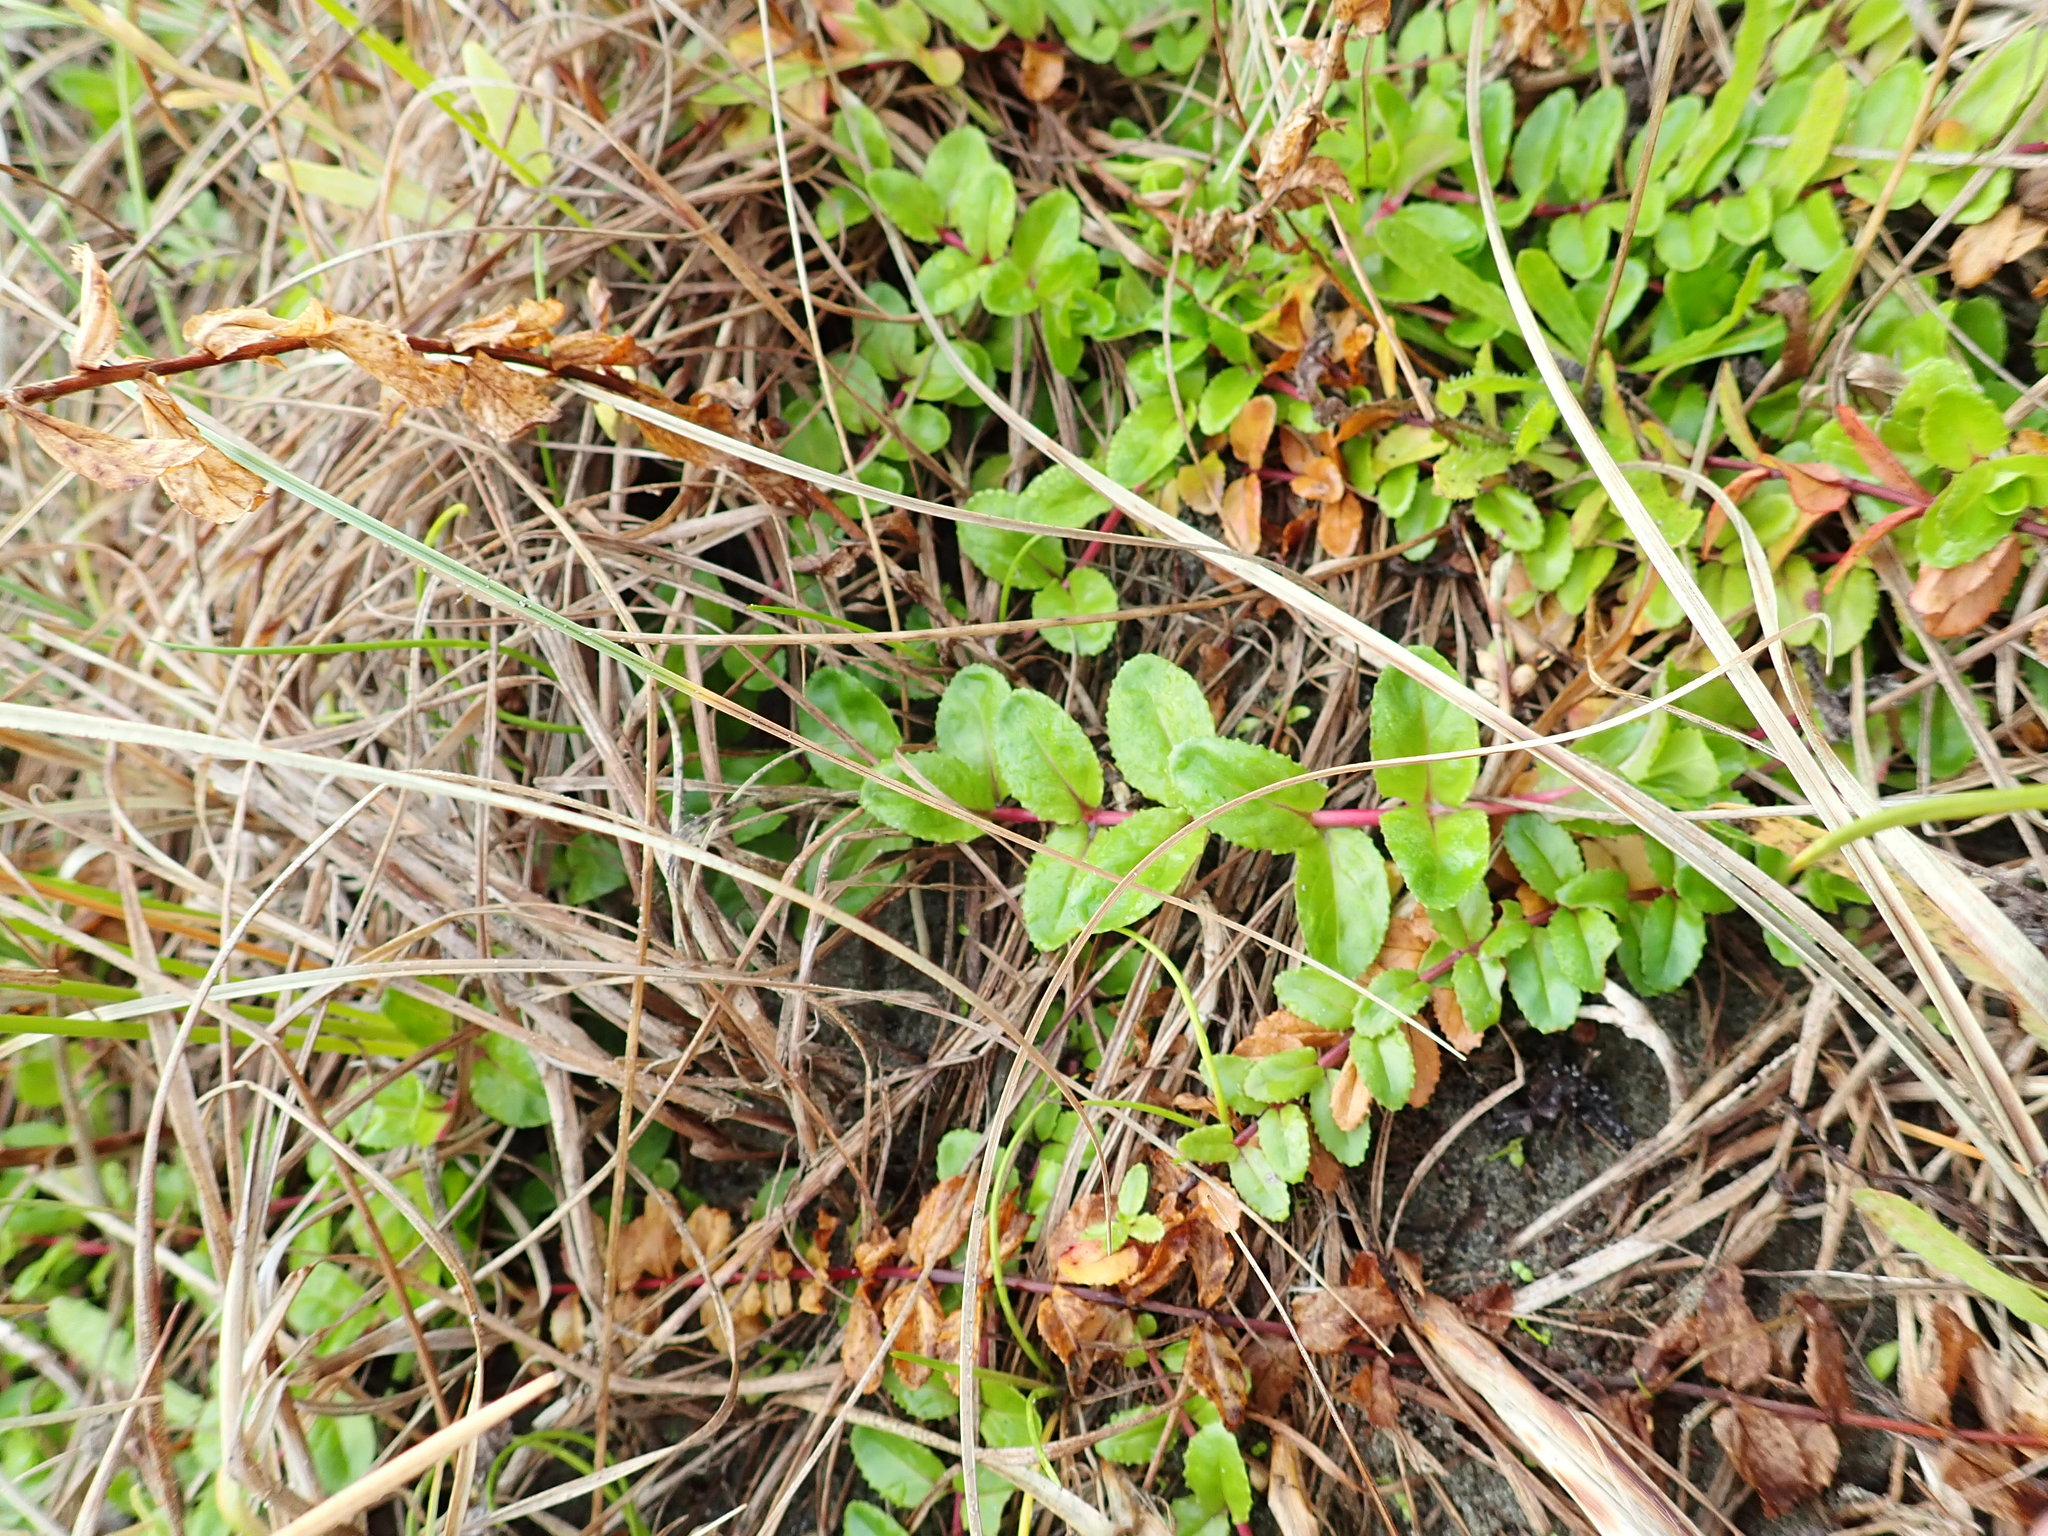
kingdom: Plantae
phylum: Tracheophyta
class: Magnoliopsida
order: Myrtales
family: Onagraceae
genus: Epilobium
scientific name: Epilobium billardiereanum
